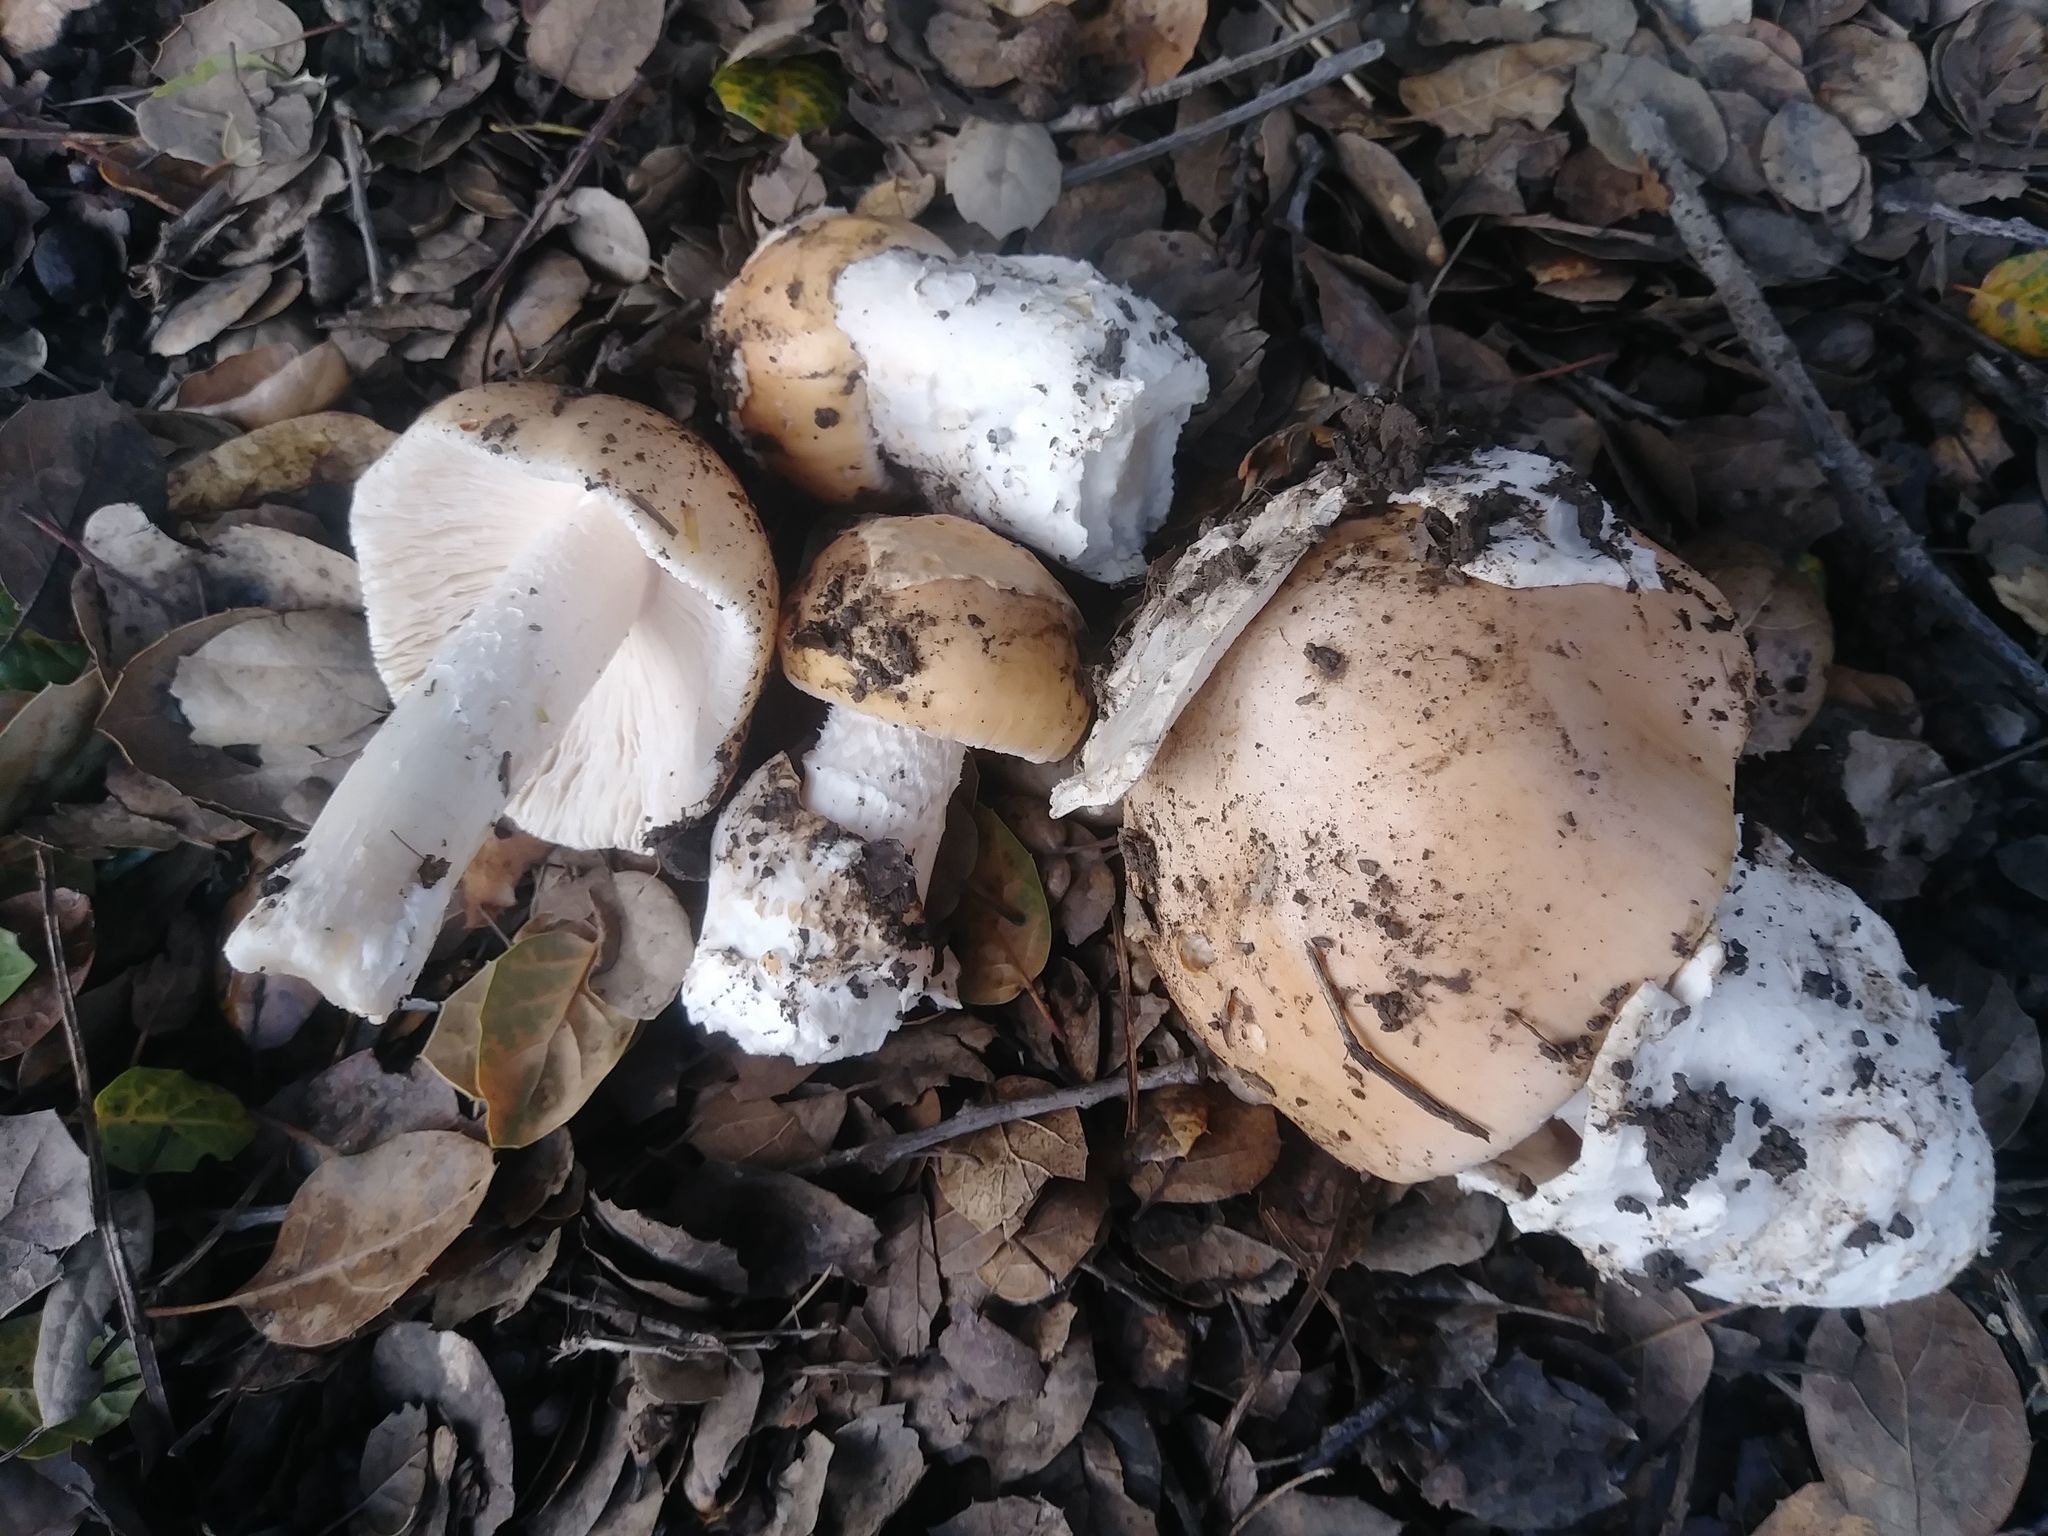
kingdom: Fungi
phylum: Basidiomycota
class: Agaricomycetes
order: Agaricales
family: Amanitaceae
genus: Amanita
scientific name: Amanita velosa
